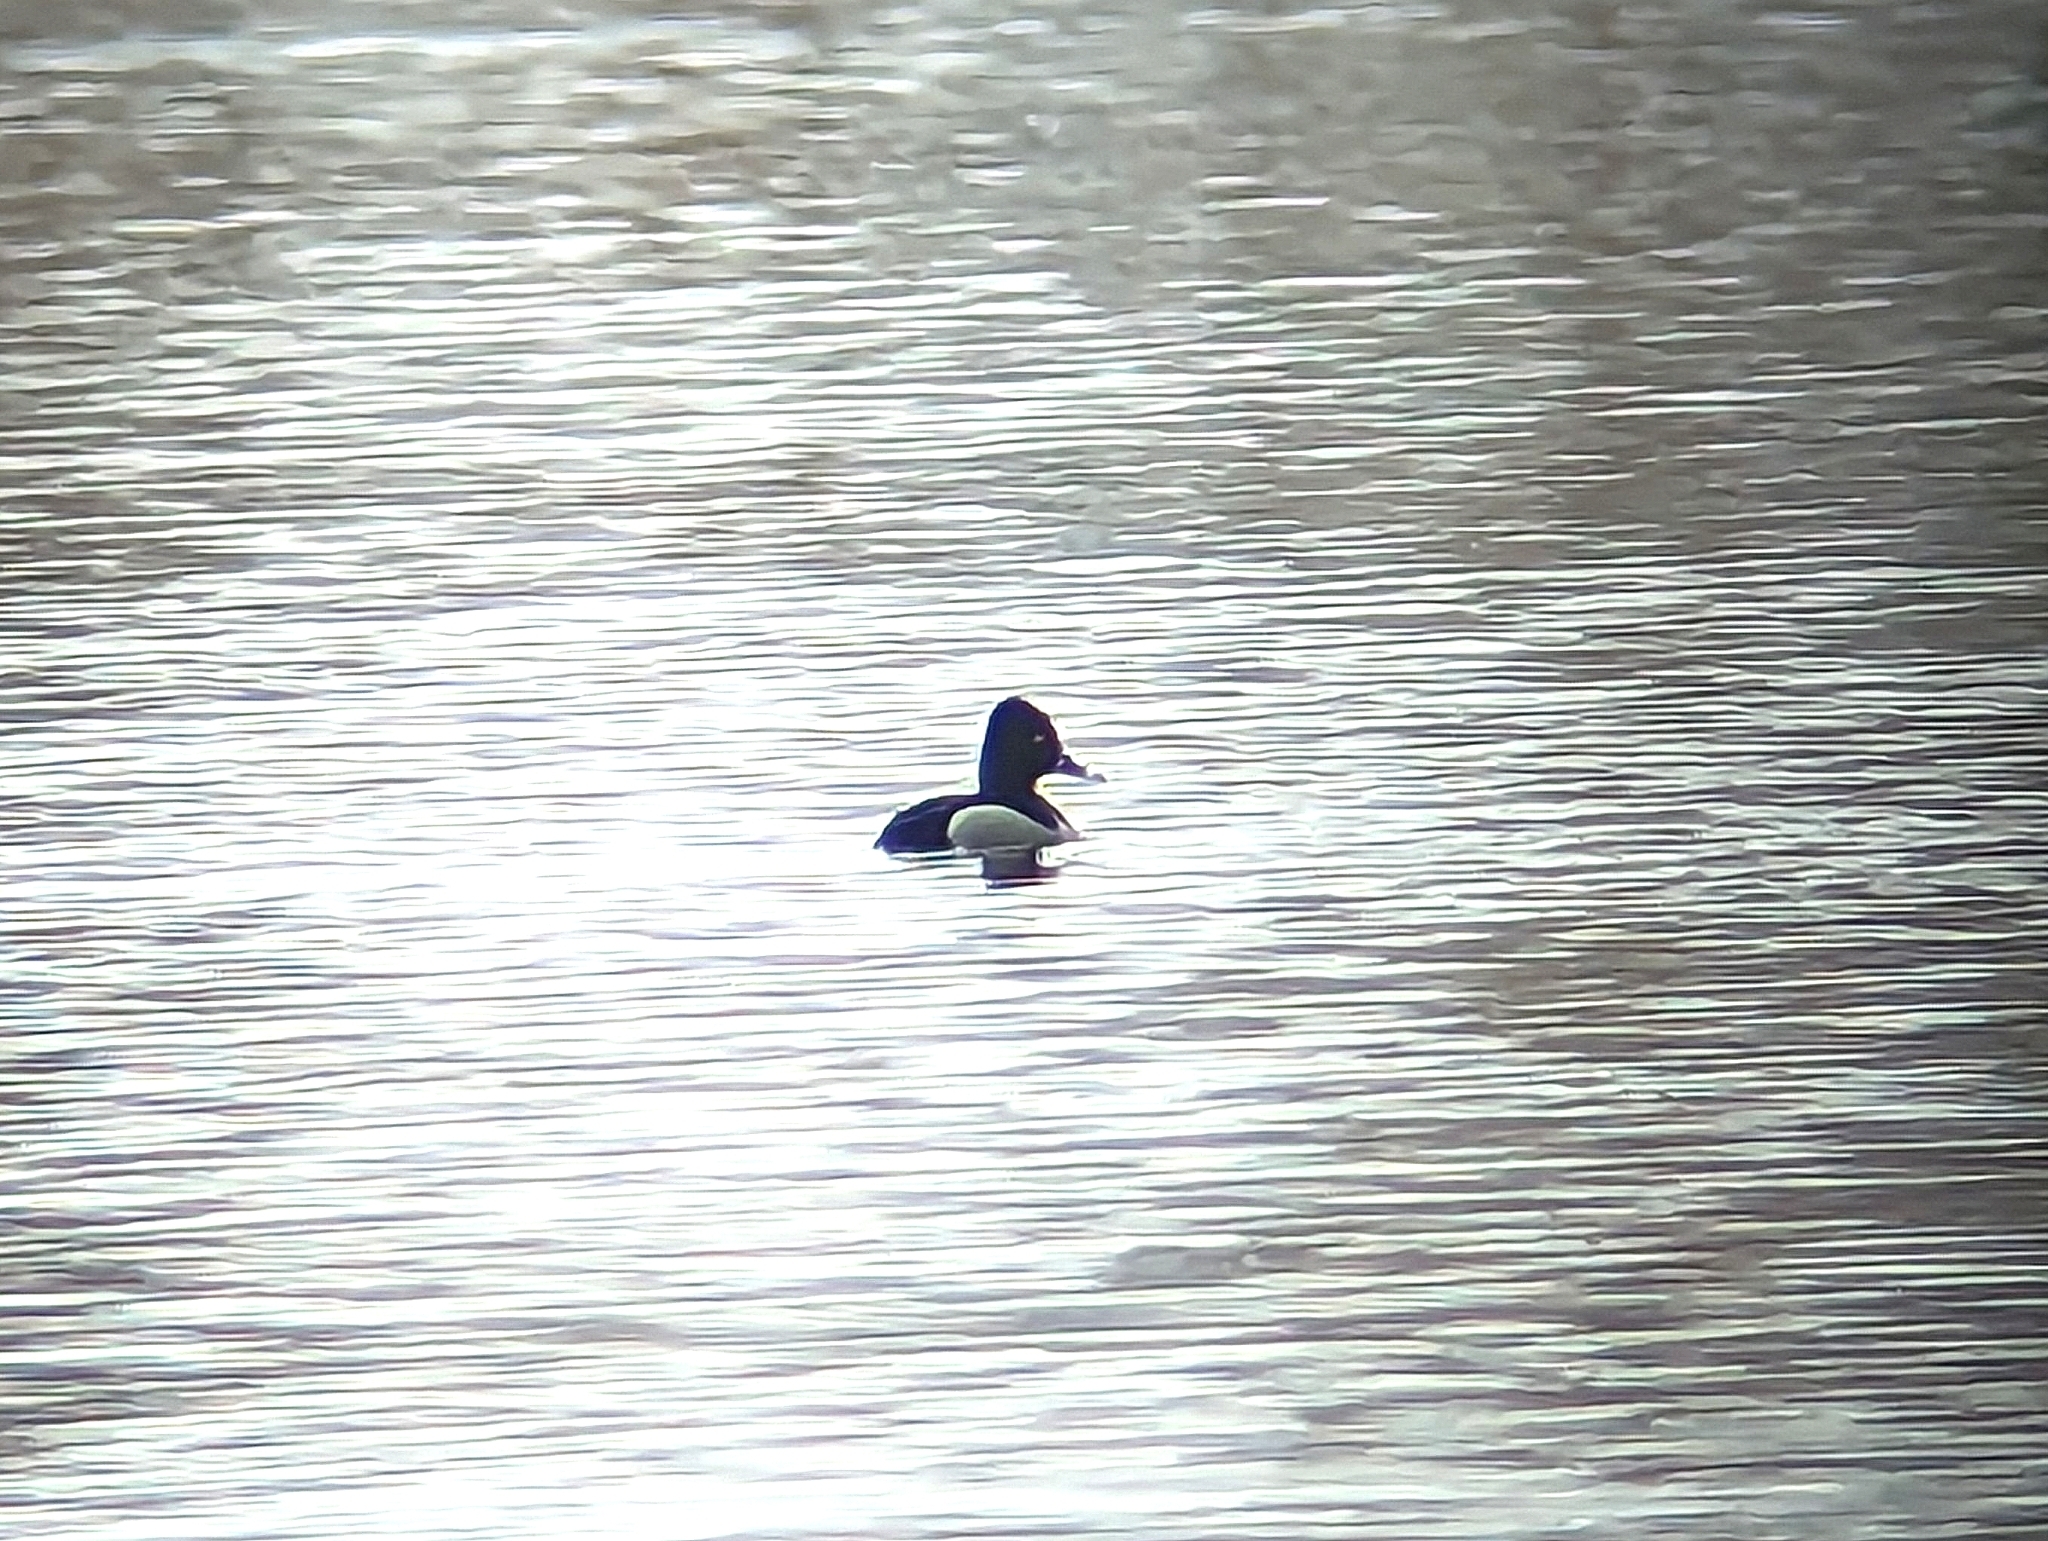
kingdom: Animalia
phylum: Chordata
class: Aves
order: Anseriformes
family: Anatidae
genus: Aythya
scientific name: Aythya collaris
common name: Ring-necked duck
